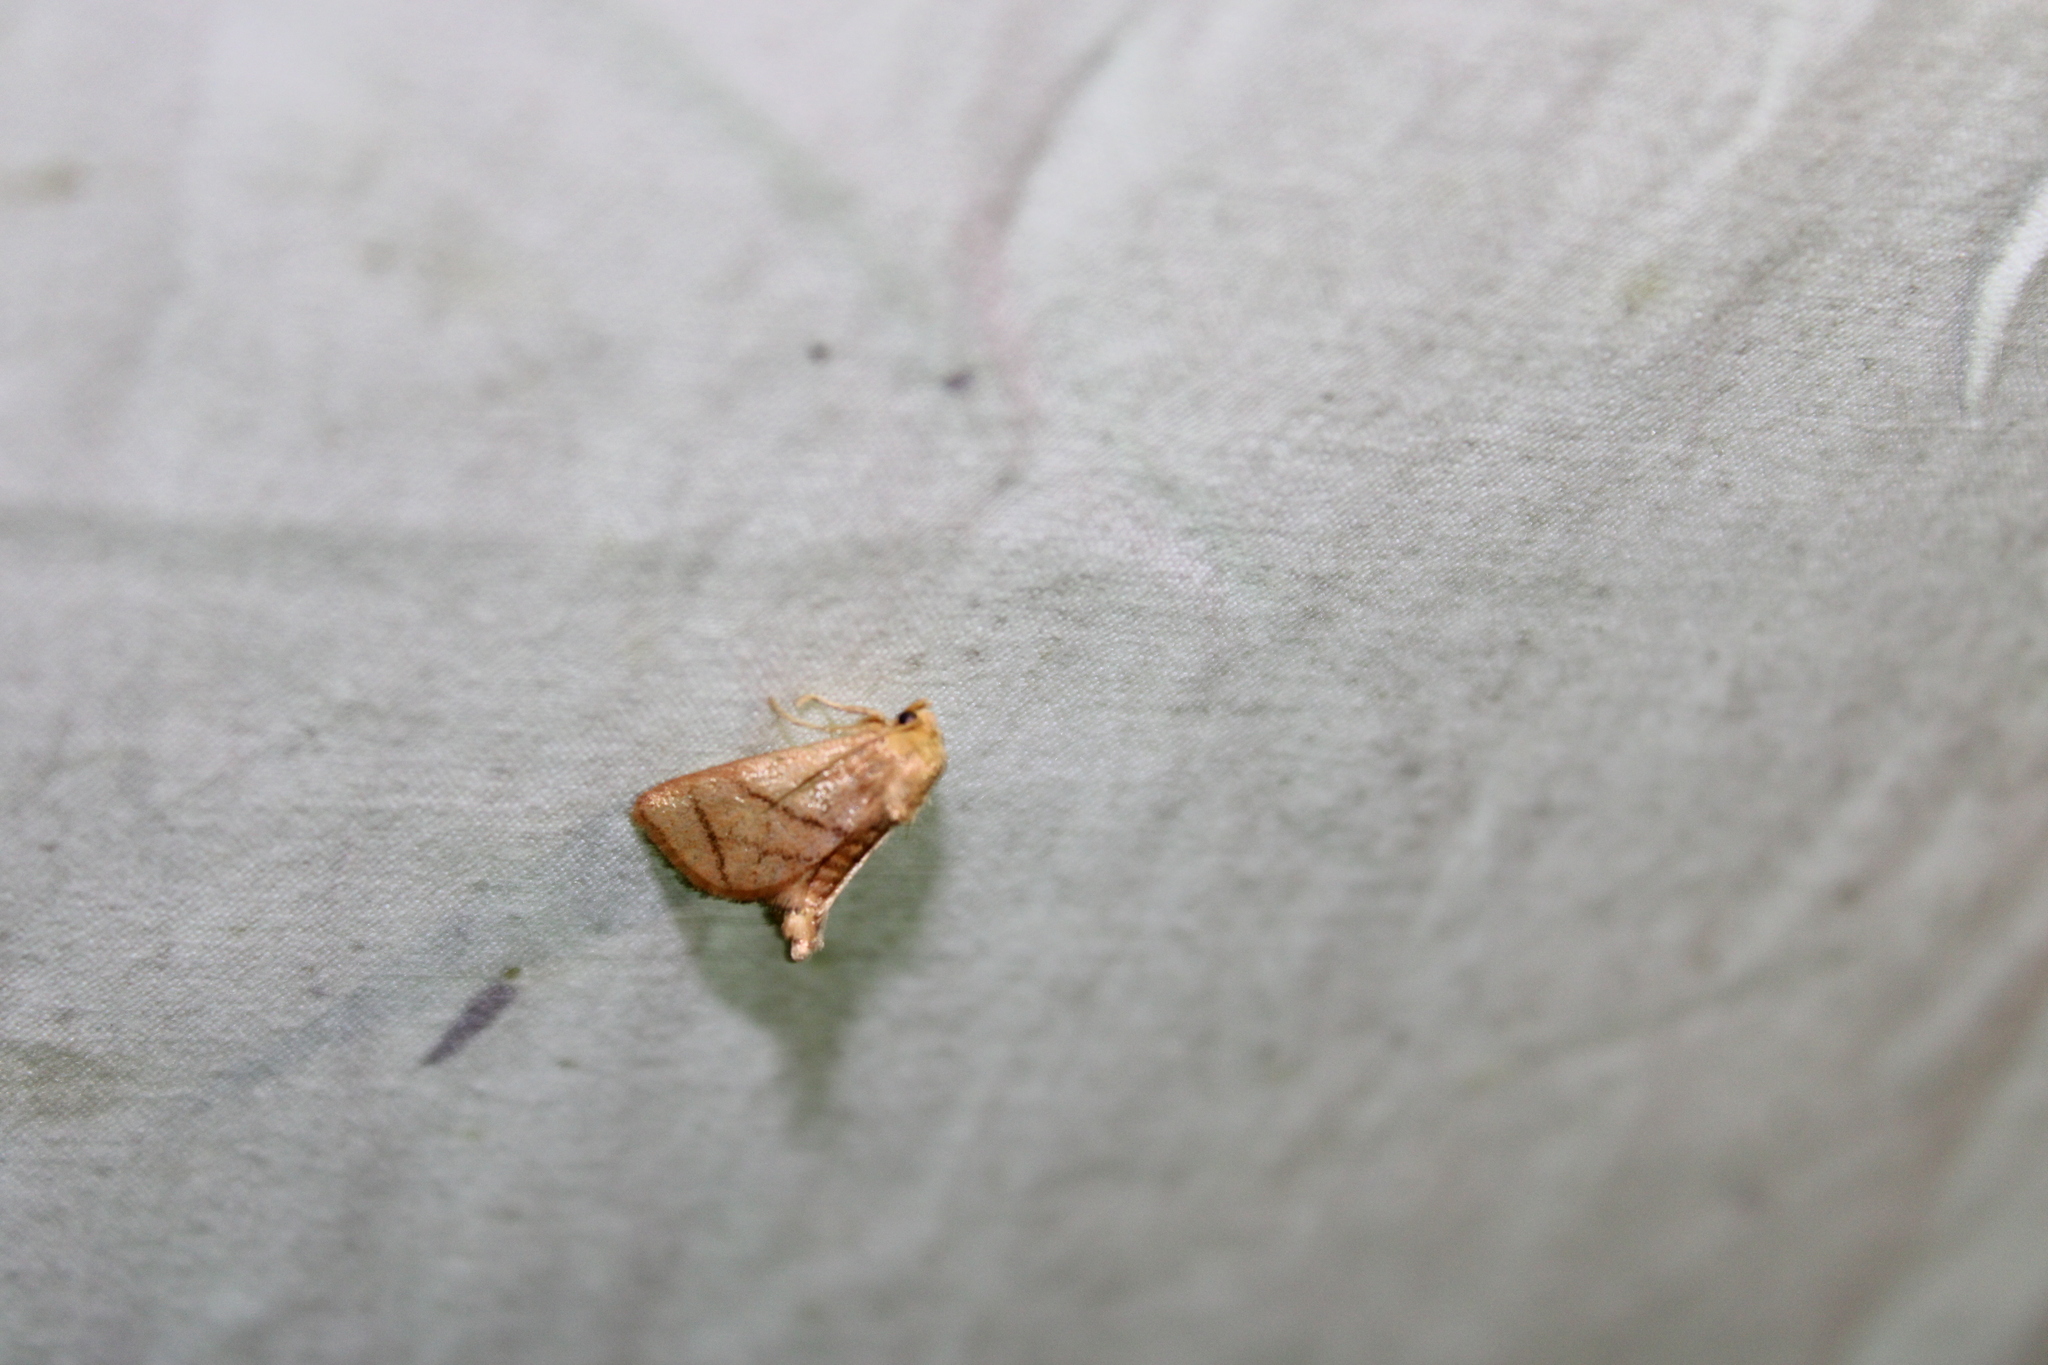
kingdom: Animalia
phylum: Arthropoda
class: Insecta
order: Lepidoptera
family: Limacodidae
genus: Apoda
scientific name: Apoda y-inversa
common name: Yellow-collared slug moth
